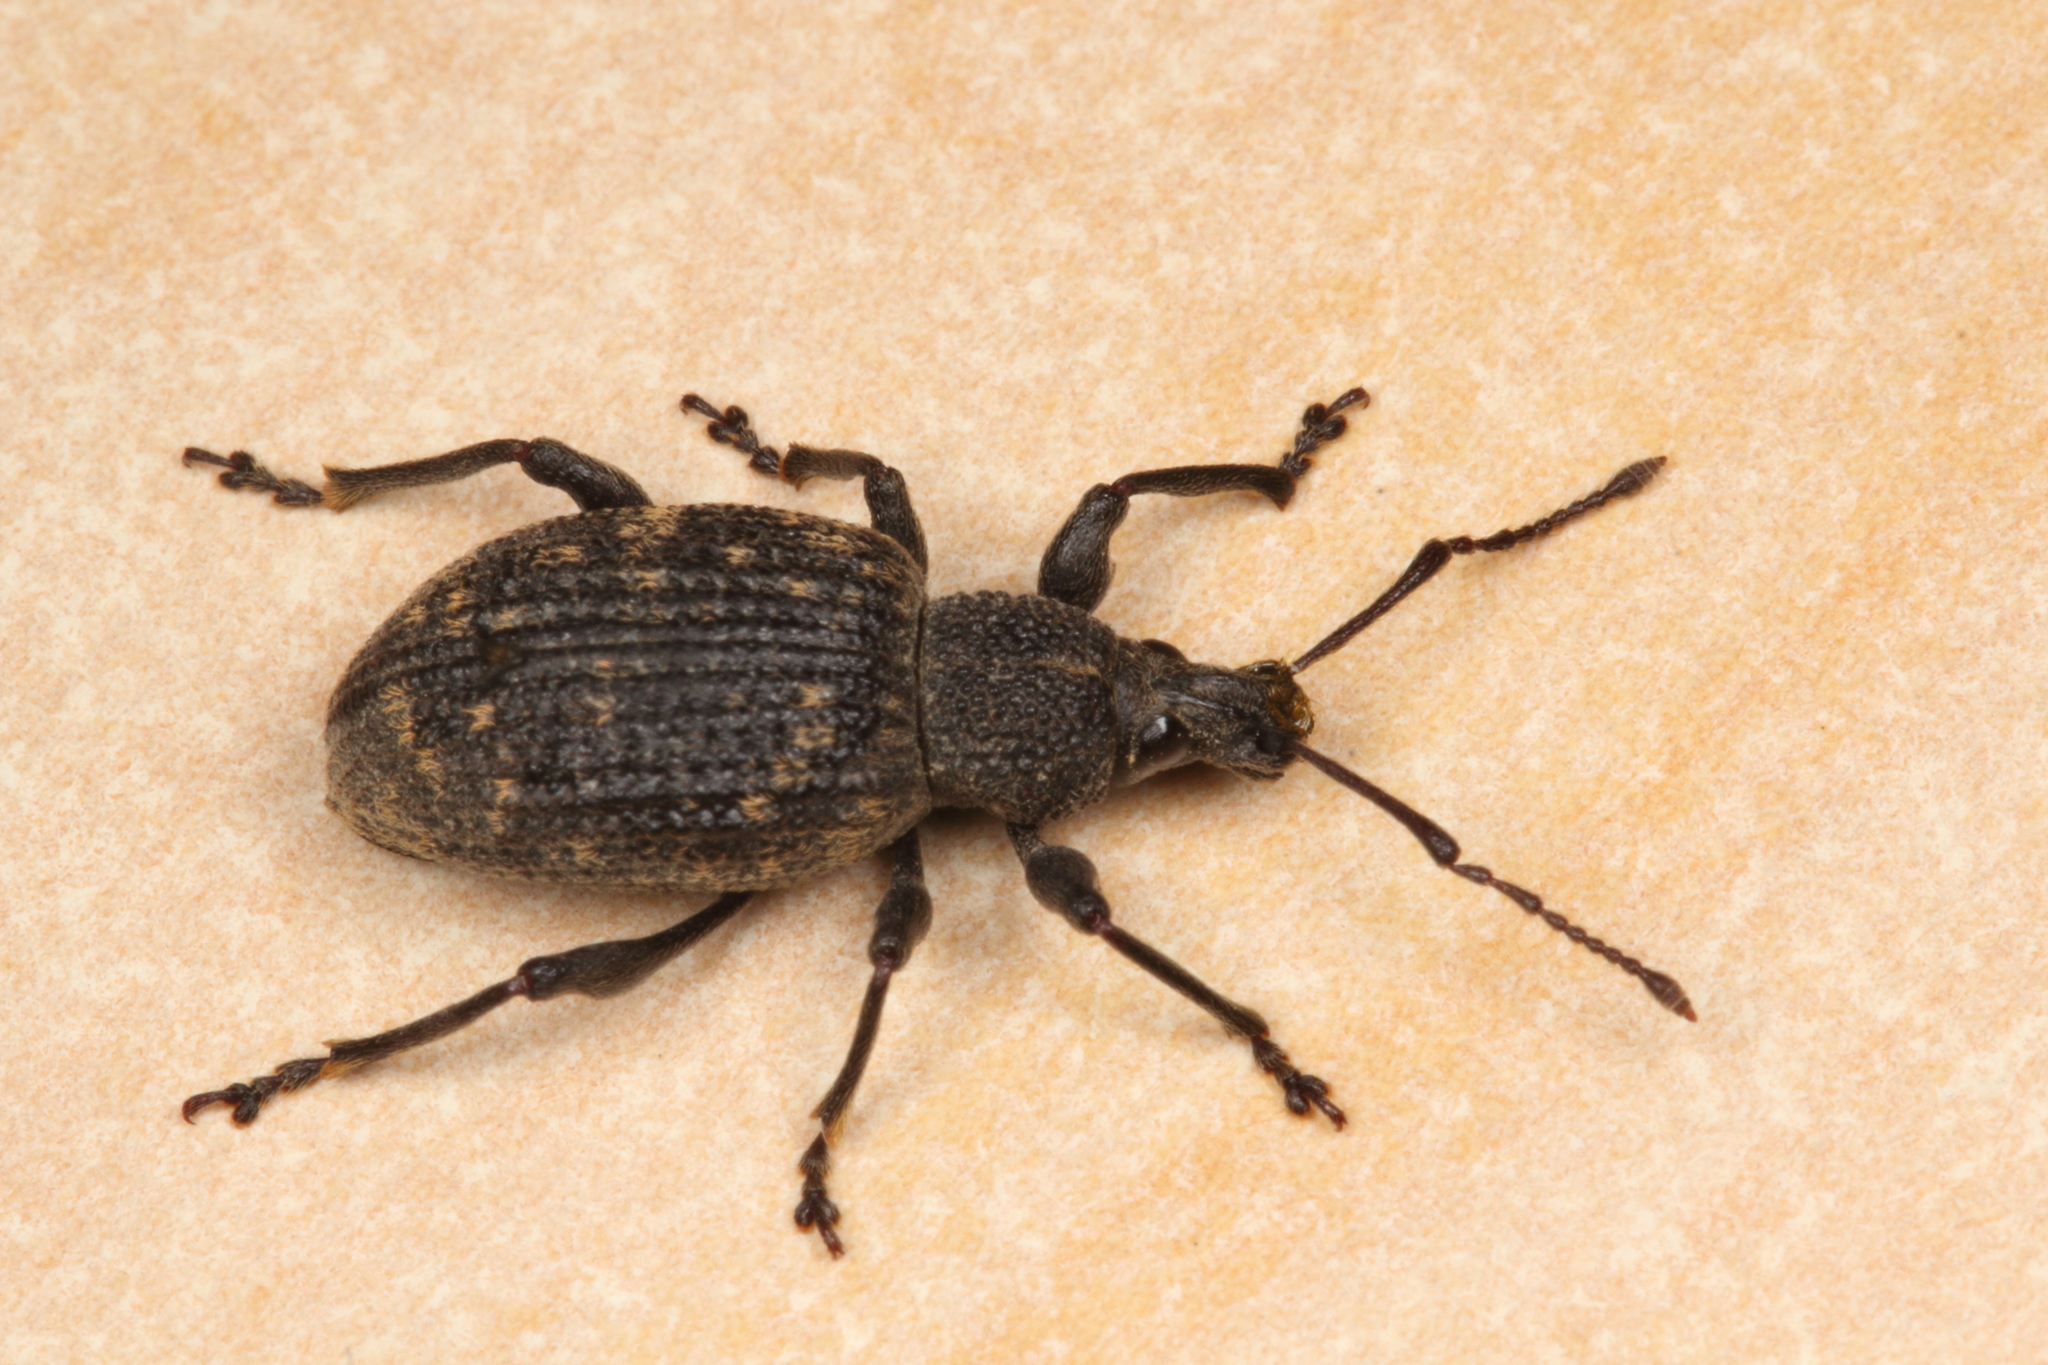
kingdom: Animalia
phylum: Arthropoda
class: Insecta
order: Coleoptera
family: Curculionidae
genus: Otiorhynchus
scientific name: Otiorhynchus sulcatus
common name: Black vine weevil
